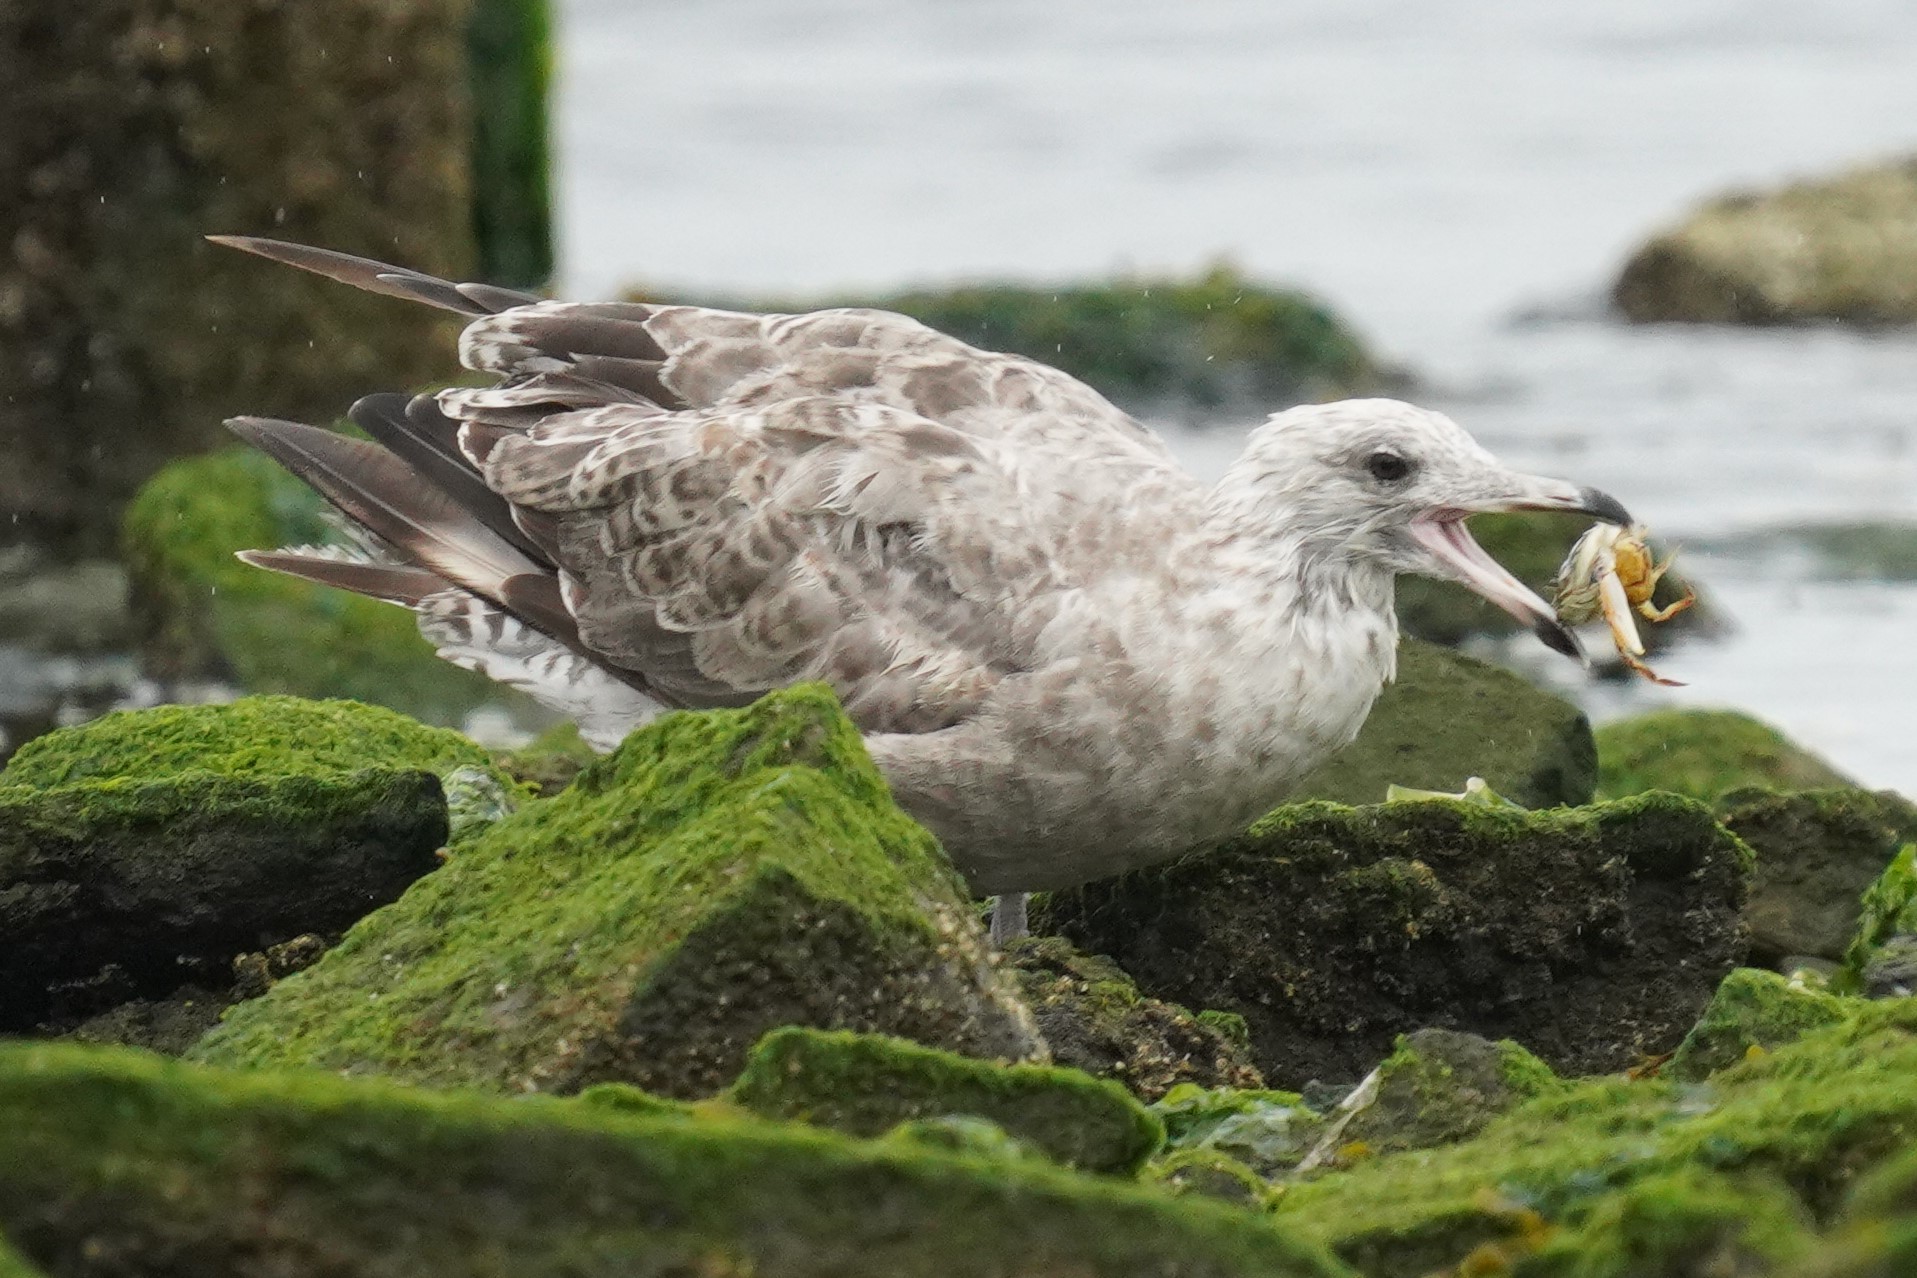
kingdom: Animalia
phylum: Chordata
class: Aves
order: Charadriiformes
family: Laridae
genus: Larus
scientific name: Larus argentatus
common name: Herring gull
